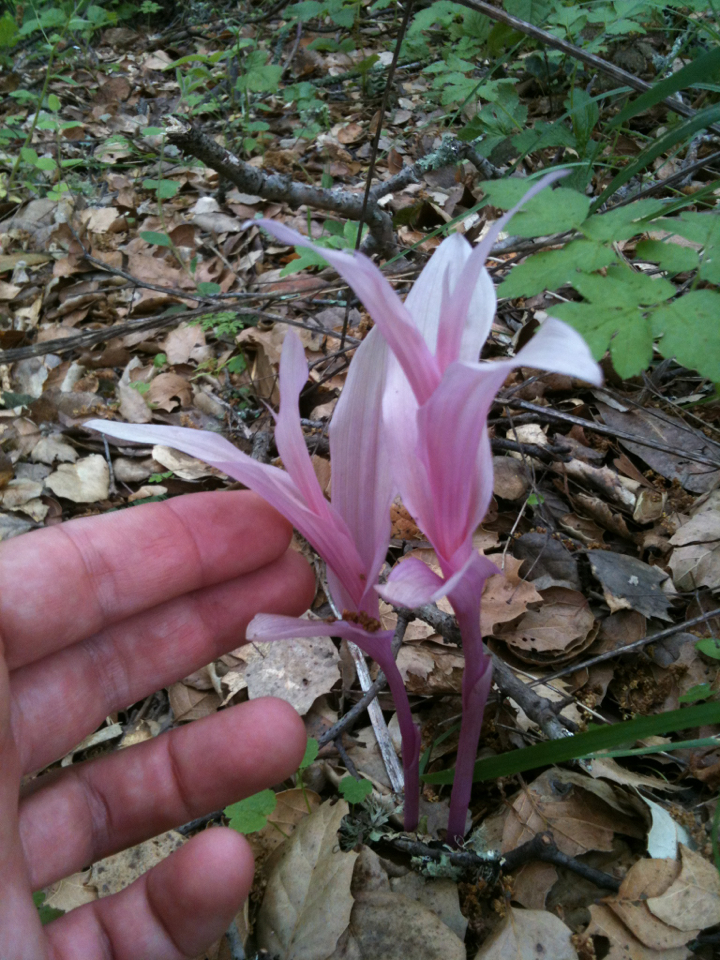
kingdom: Plantae
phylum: Tracheophyta
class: Liliopsida
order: Asparagales
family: Orchidaceae
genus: Epipactis
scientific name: Epipactis helleborine
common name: Broad-leaved helleborine
